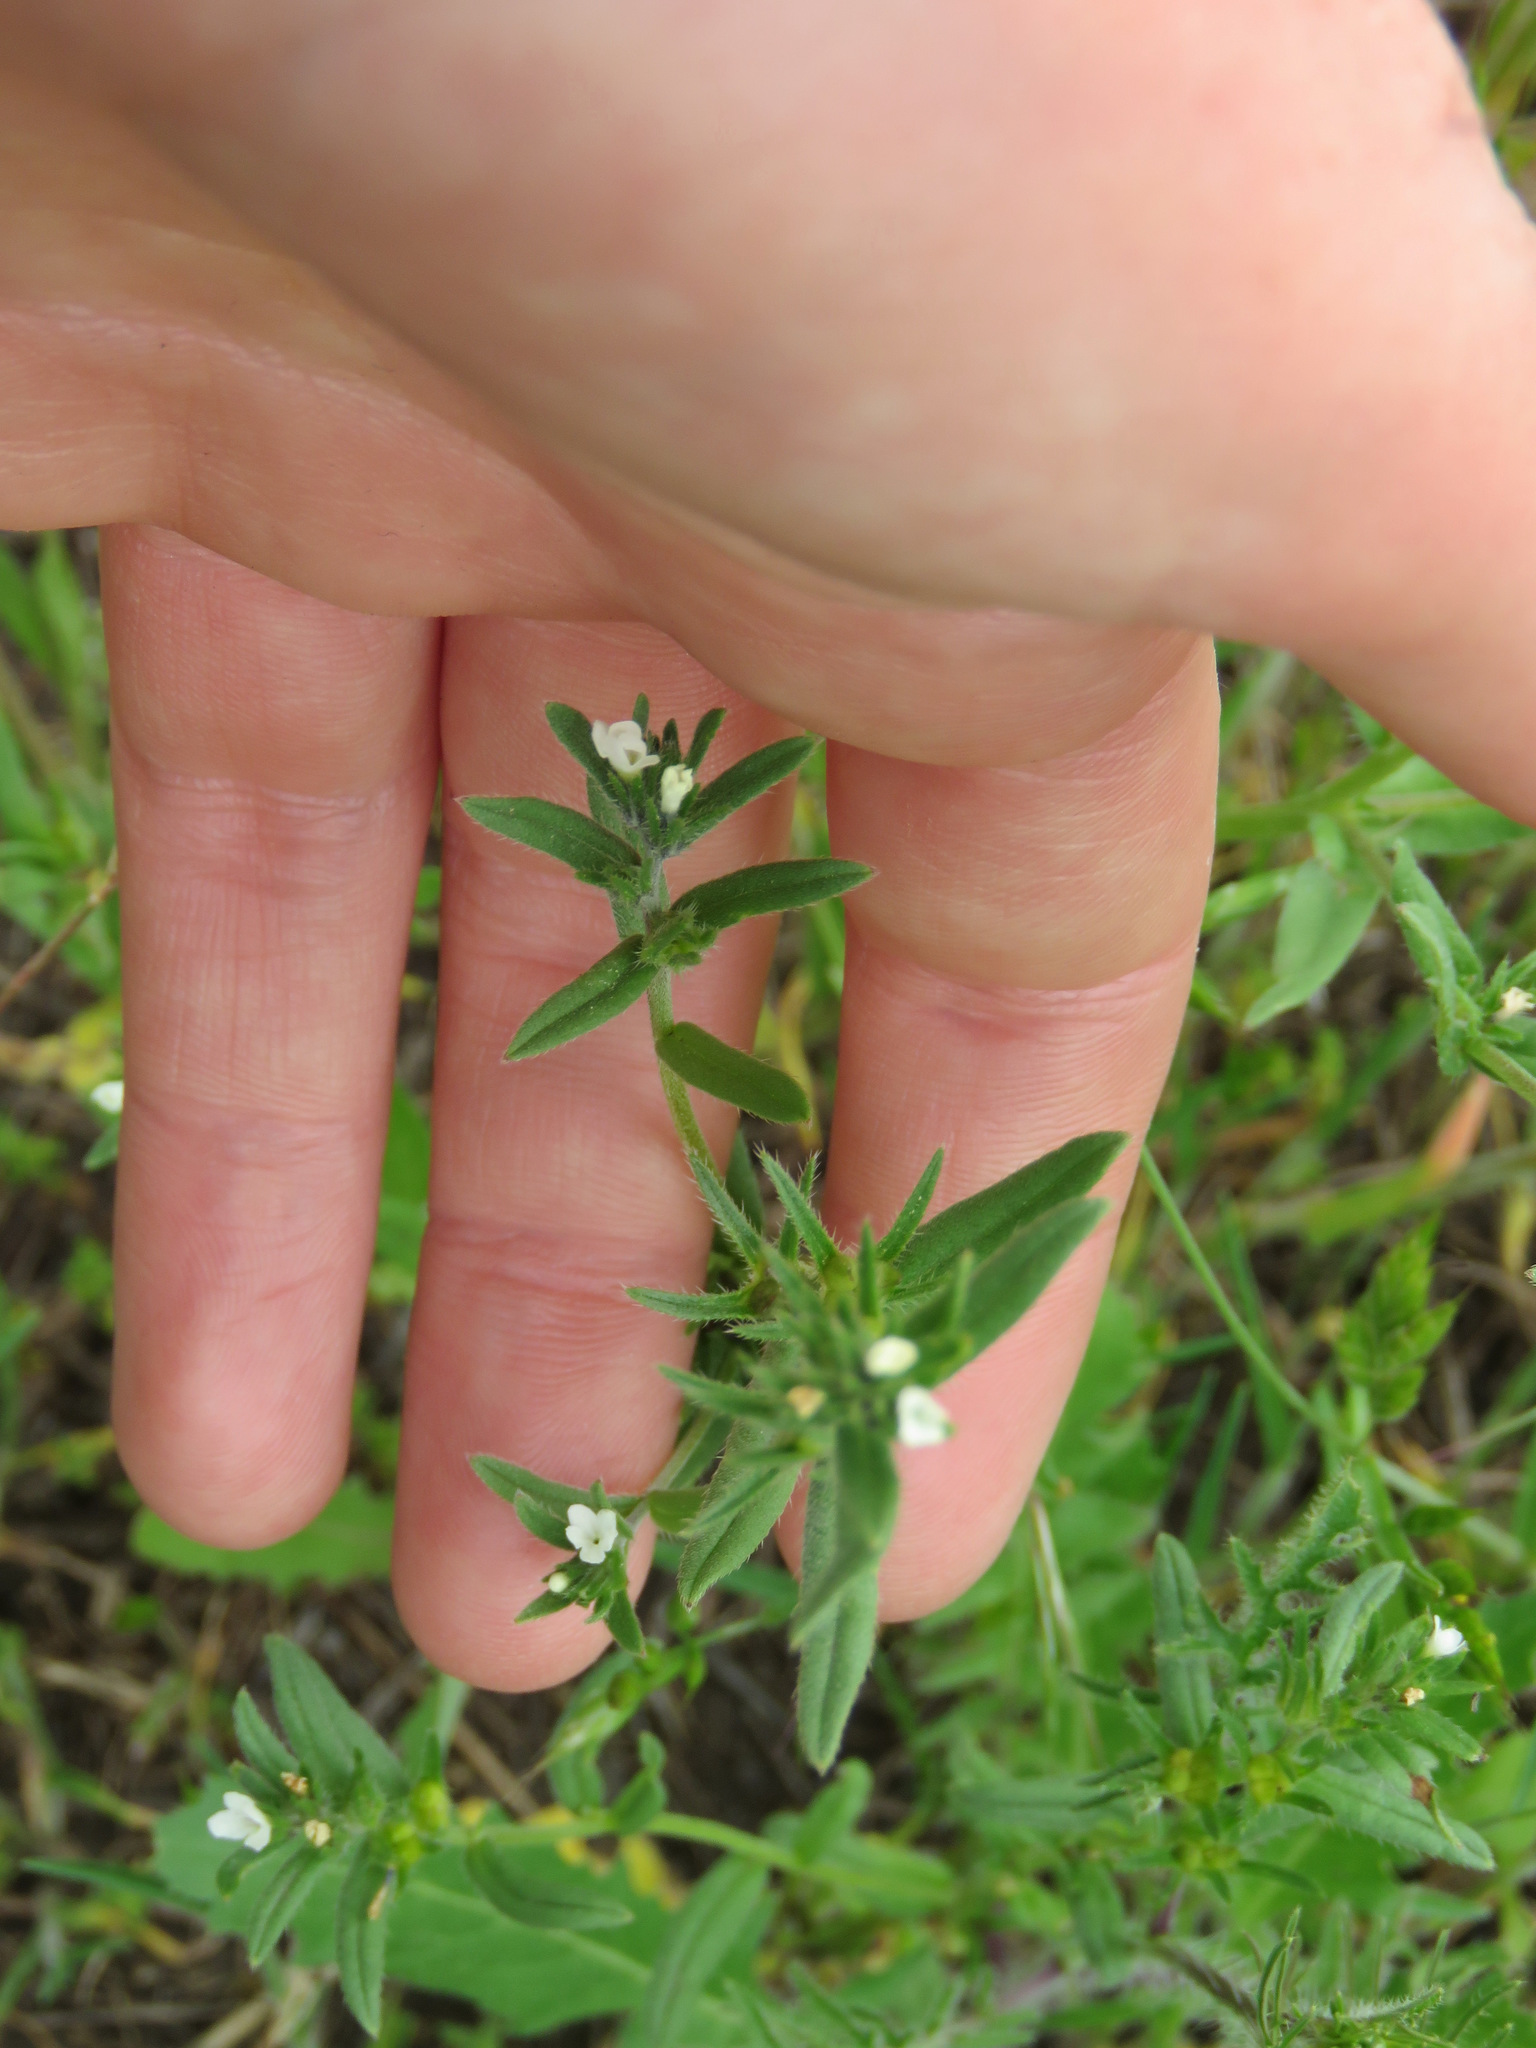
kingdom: Plantae
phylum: Tracheophyta
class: Magnoliopsida
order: Boraginales
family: Boraginaceae
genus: Buglossoides
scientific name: Buglossoides arvensis
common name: Corn gromwell
